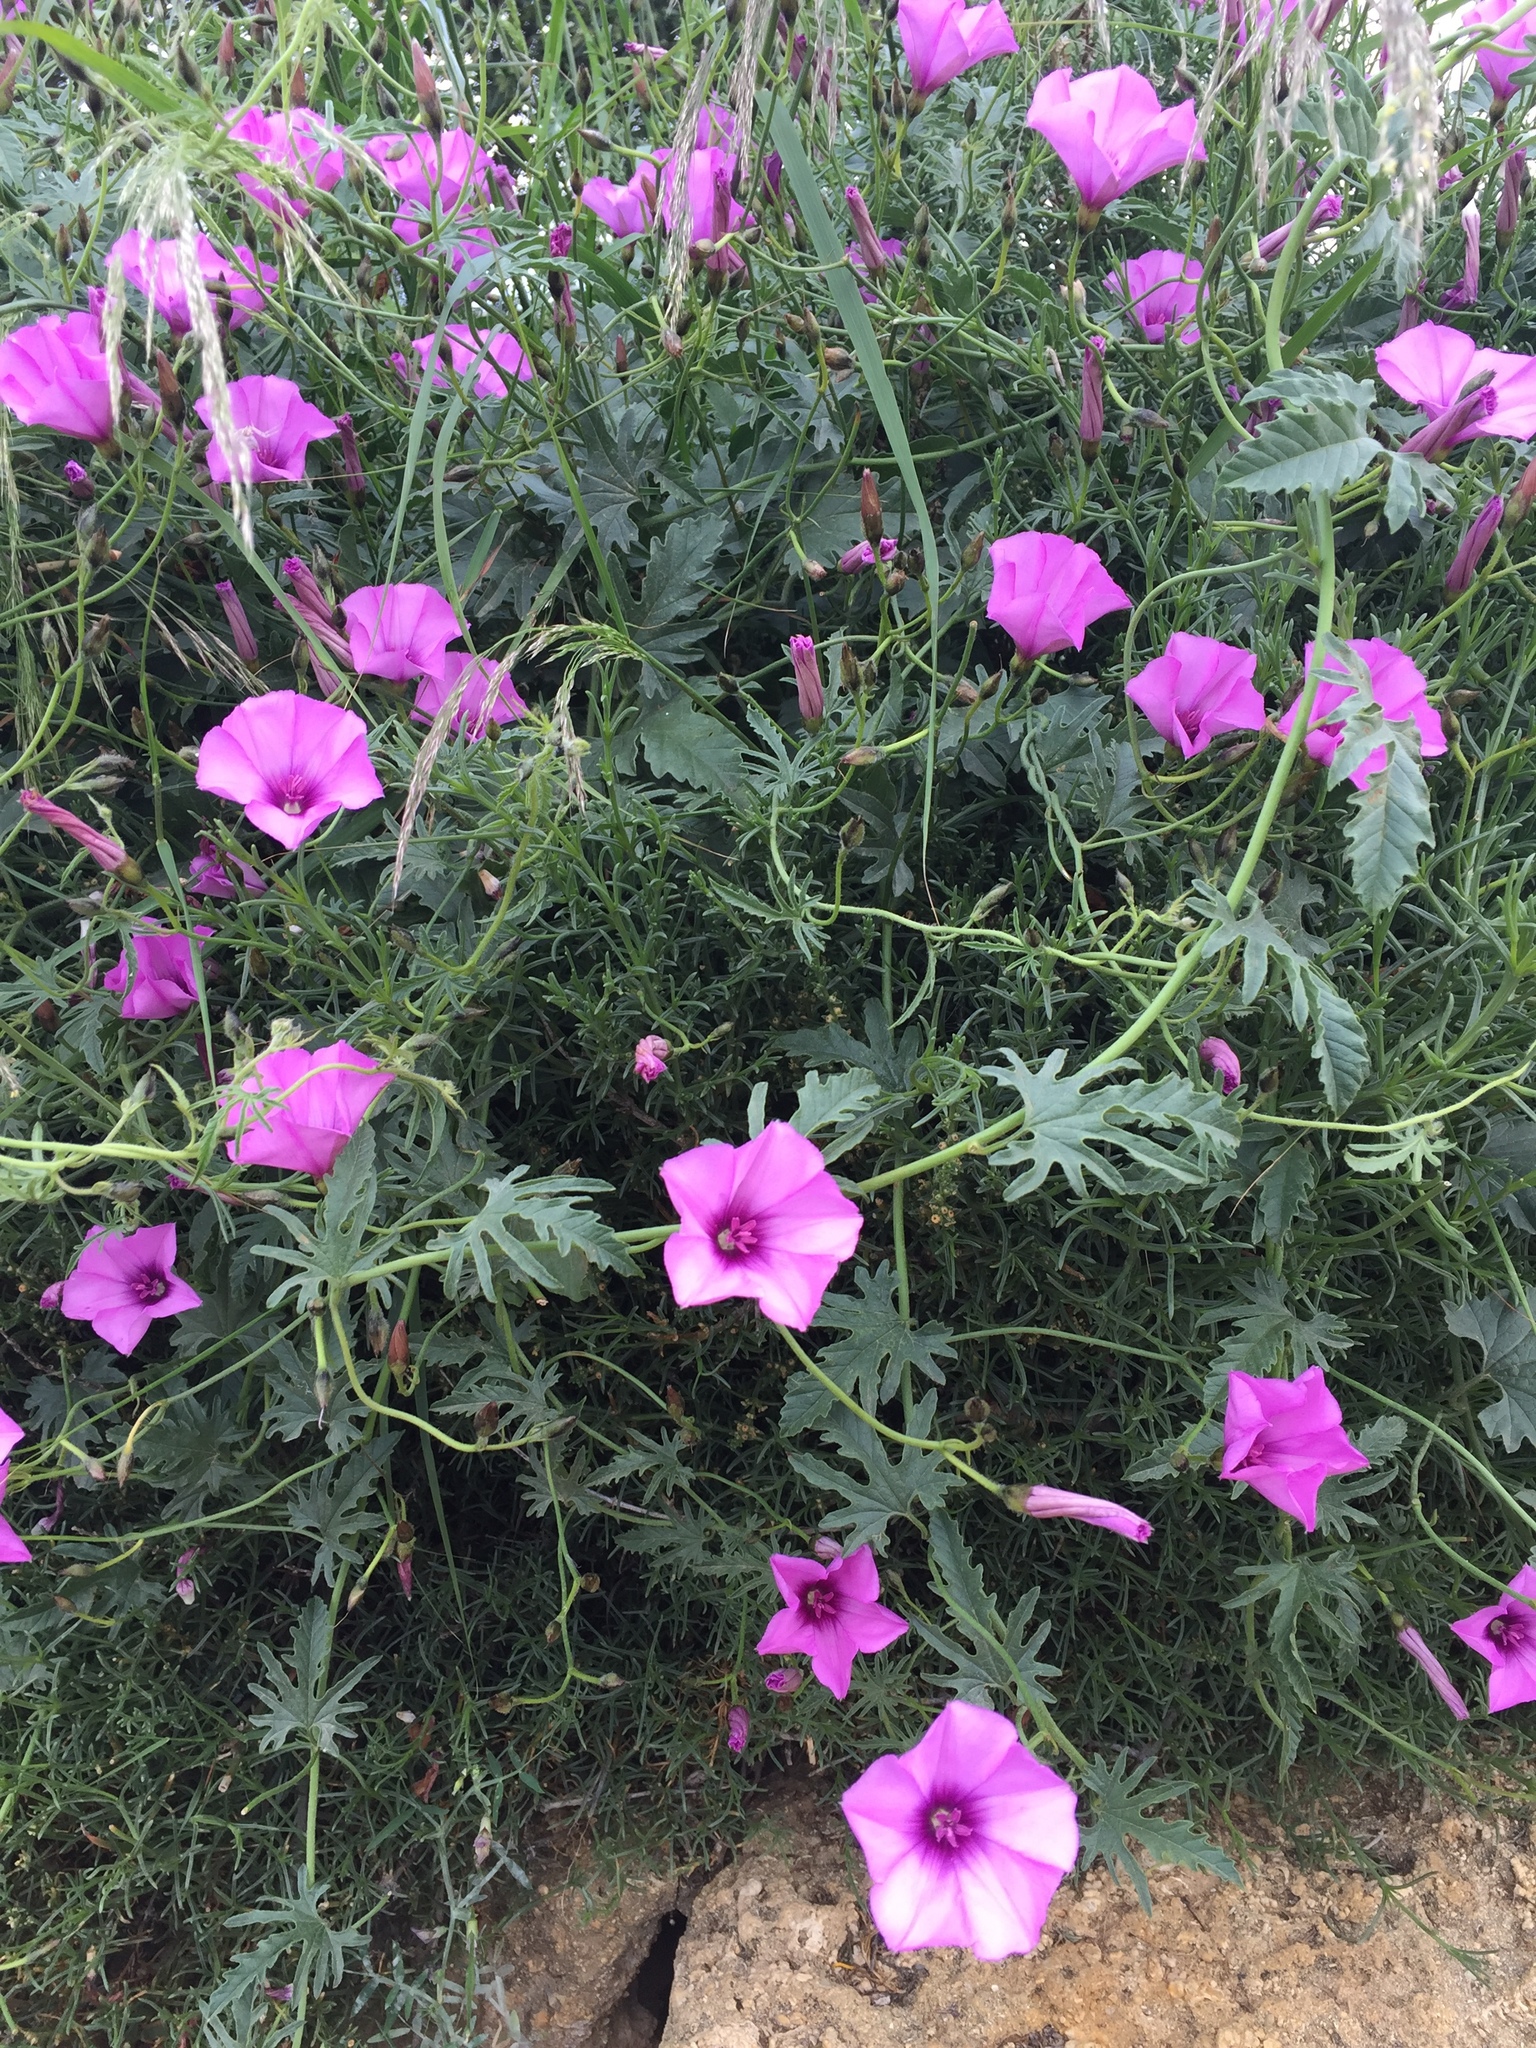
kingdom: Plantae
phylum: Tracheophyta
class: Magnoliopsida
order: Solanales
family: Convolvulaceae
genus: Convolvulus
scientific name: Convolvulus althaeoides
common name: Mallow bindweed
